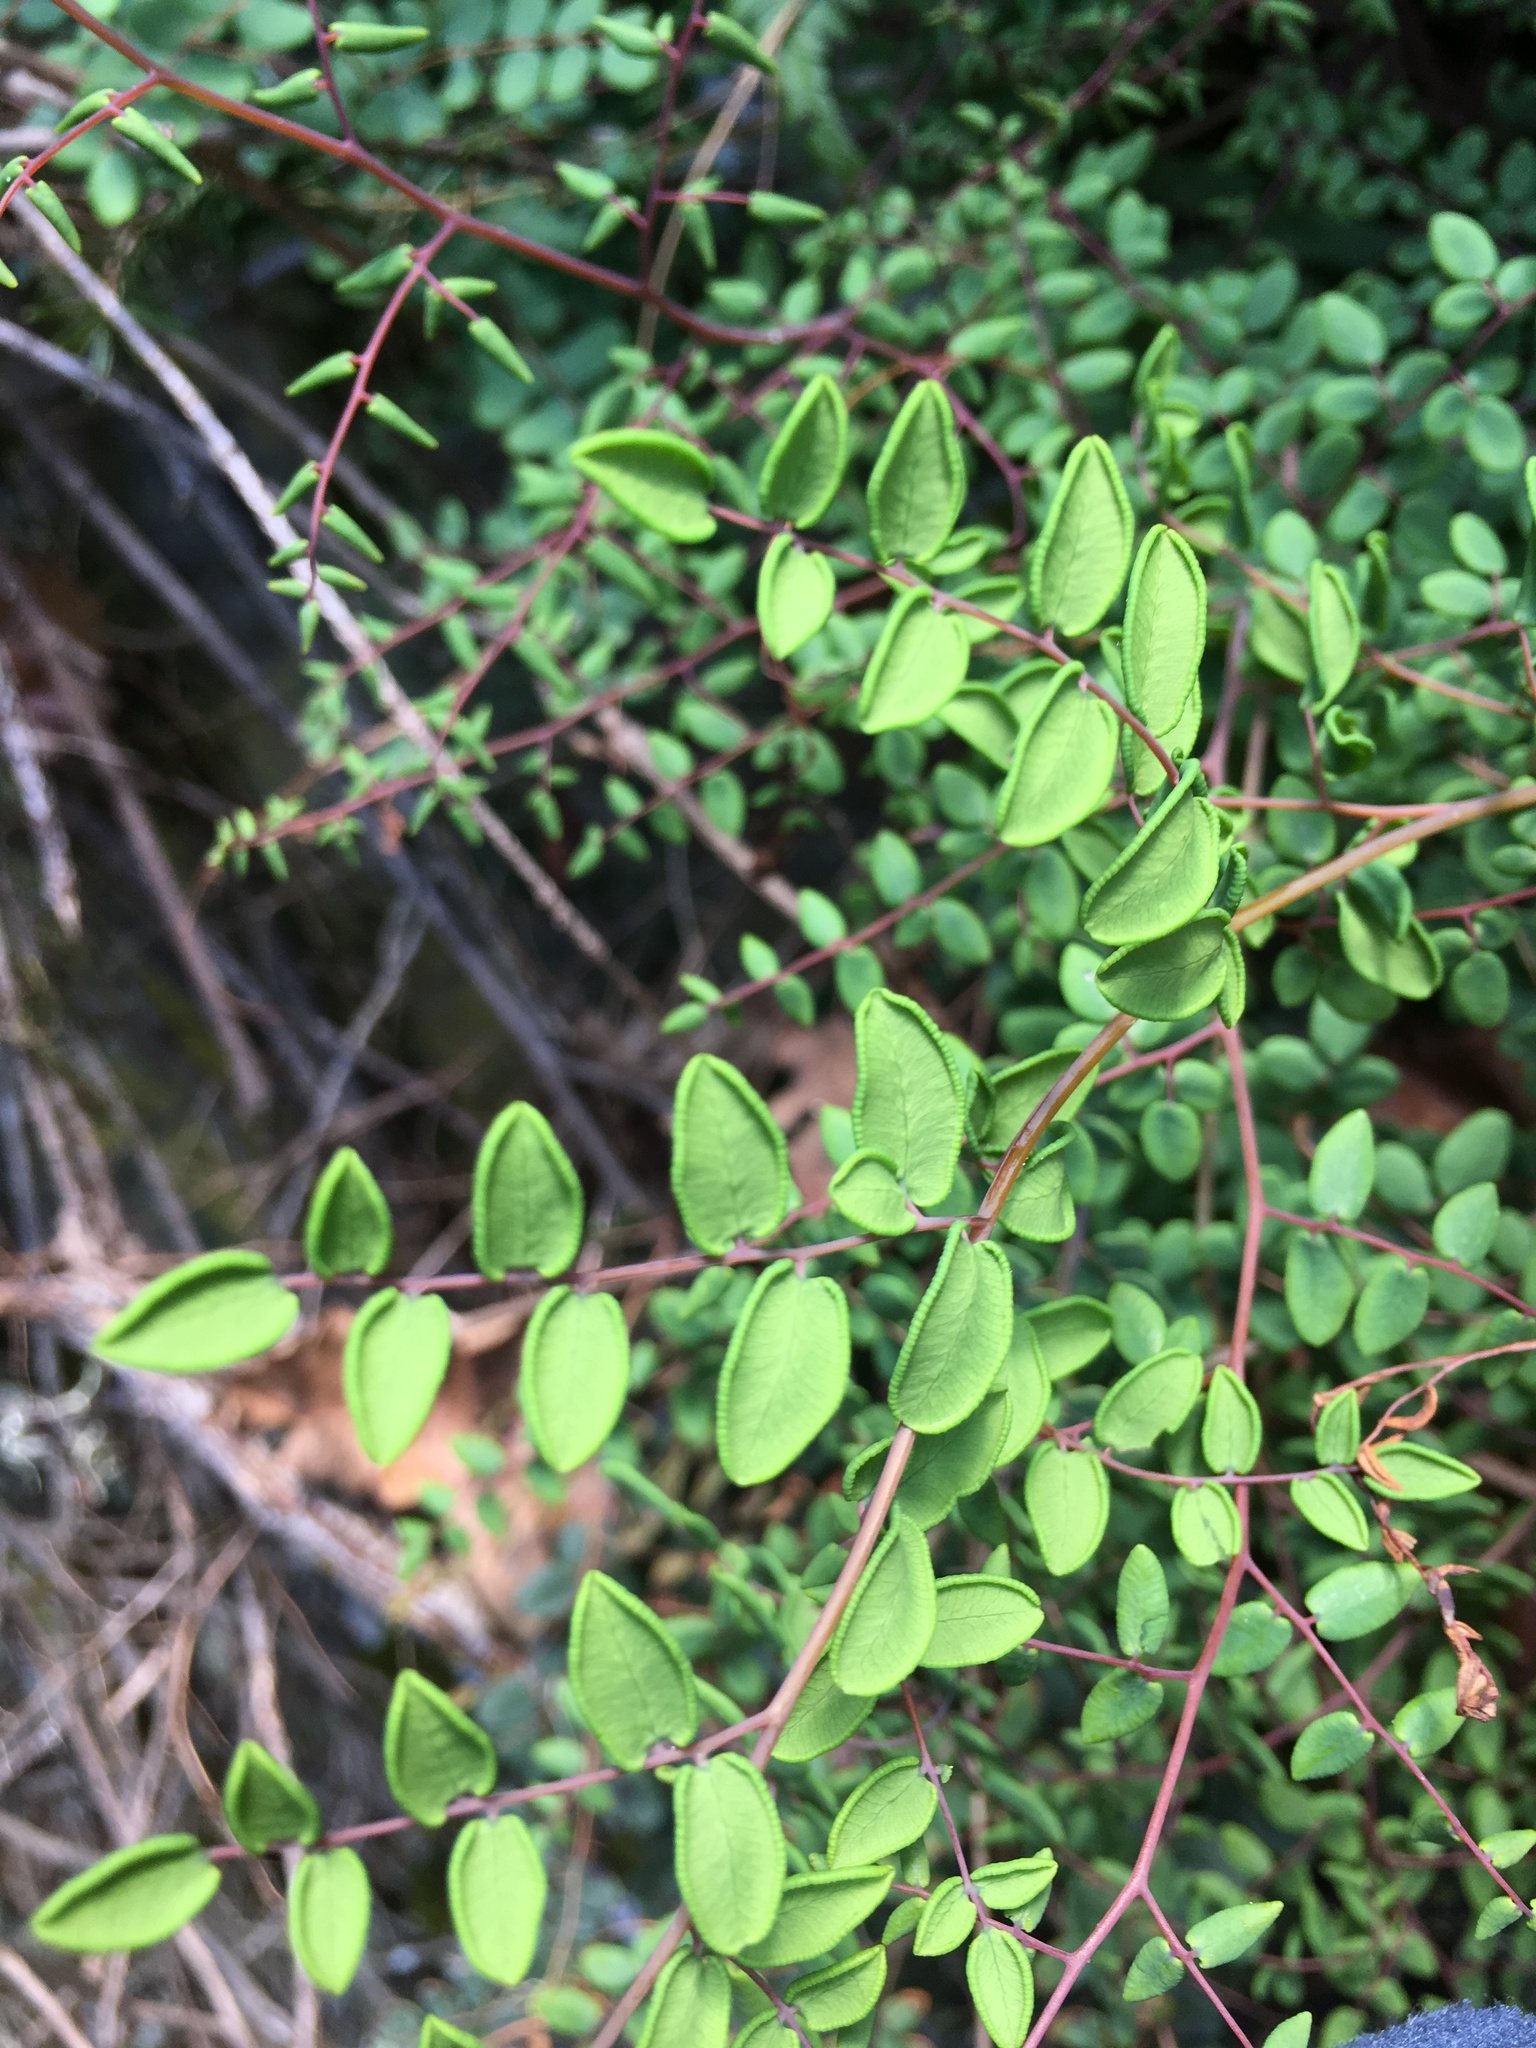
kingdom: Plantae
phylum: Tracheophyta
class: Polypodiopsida
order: Polypodiales
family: Pteridaceae
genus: Pellaea
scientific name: Pellaea andromedifolia
